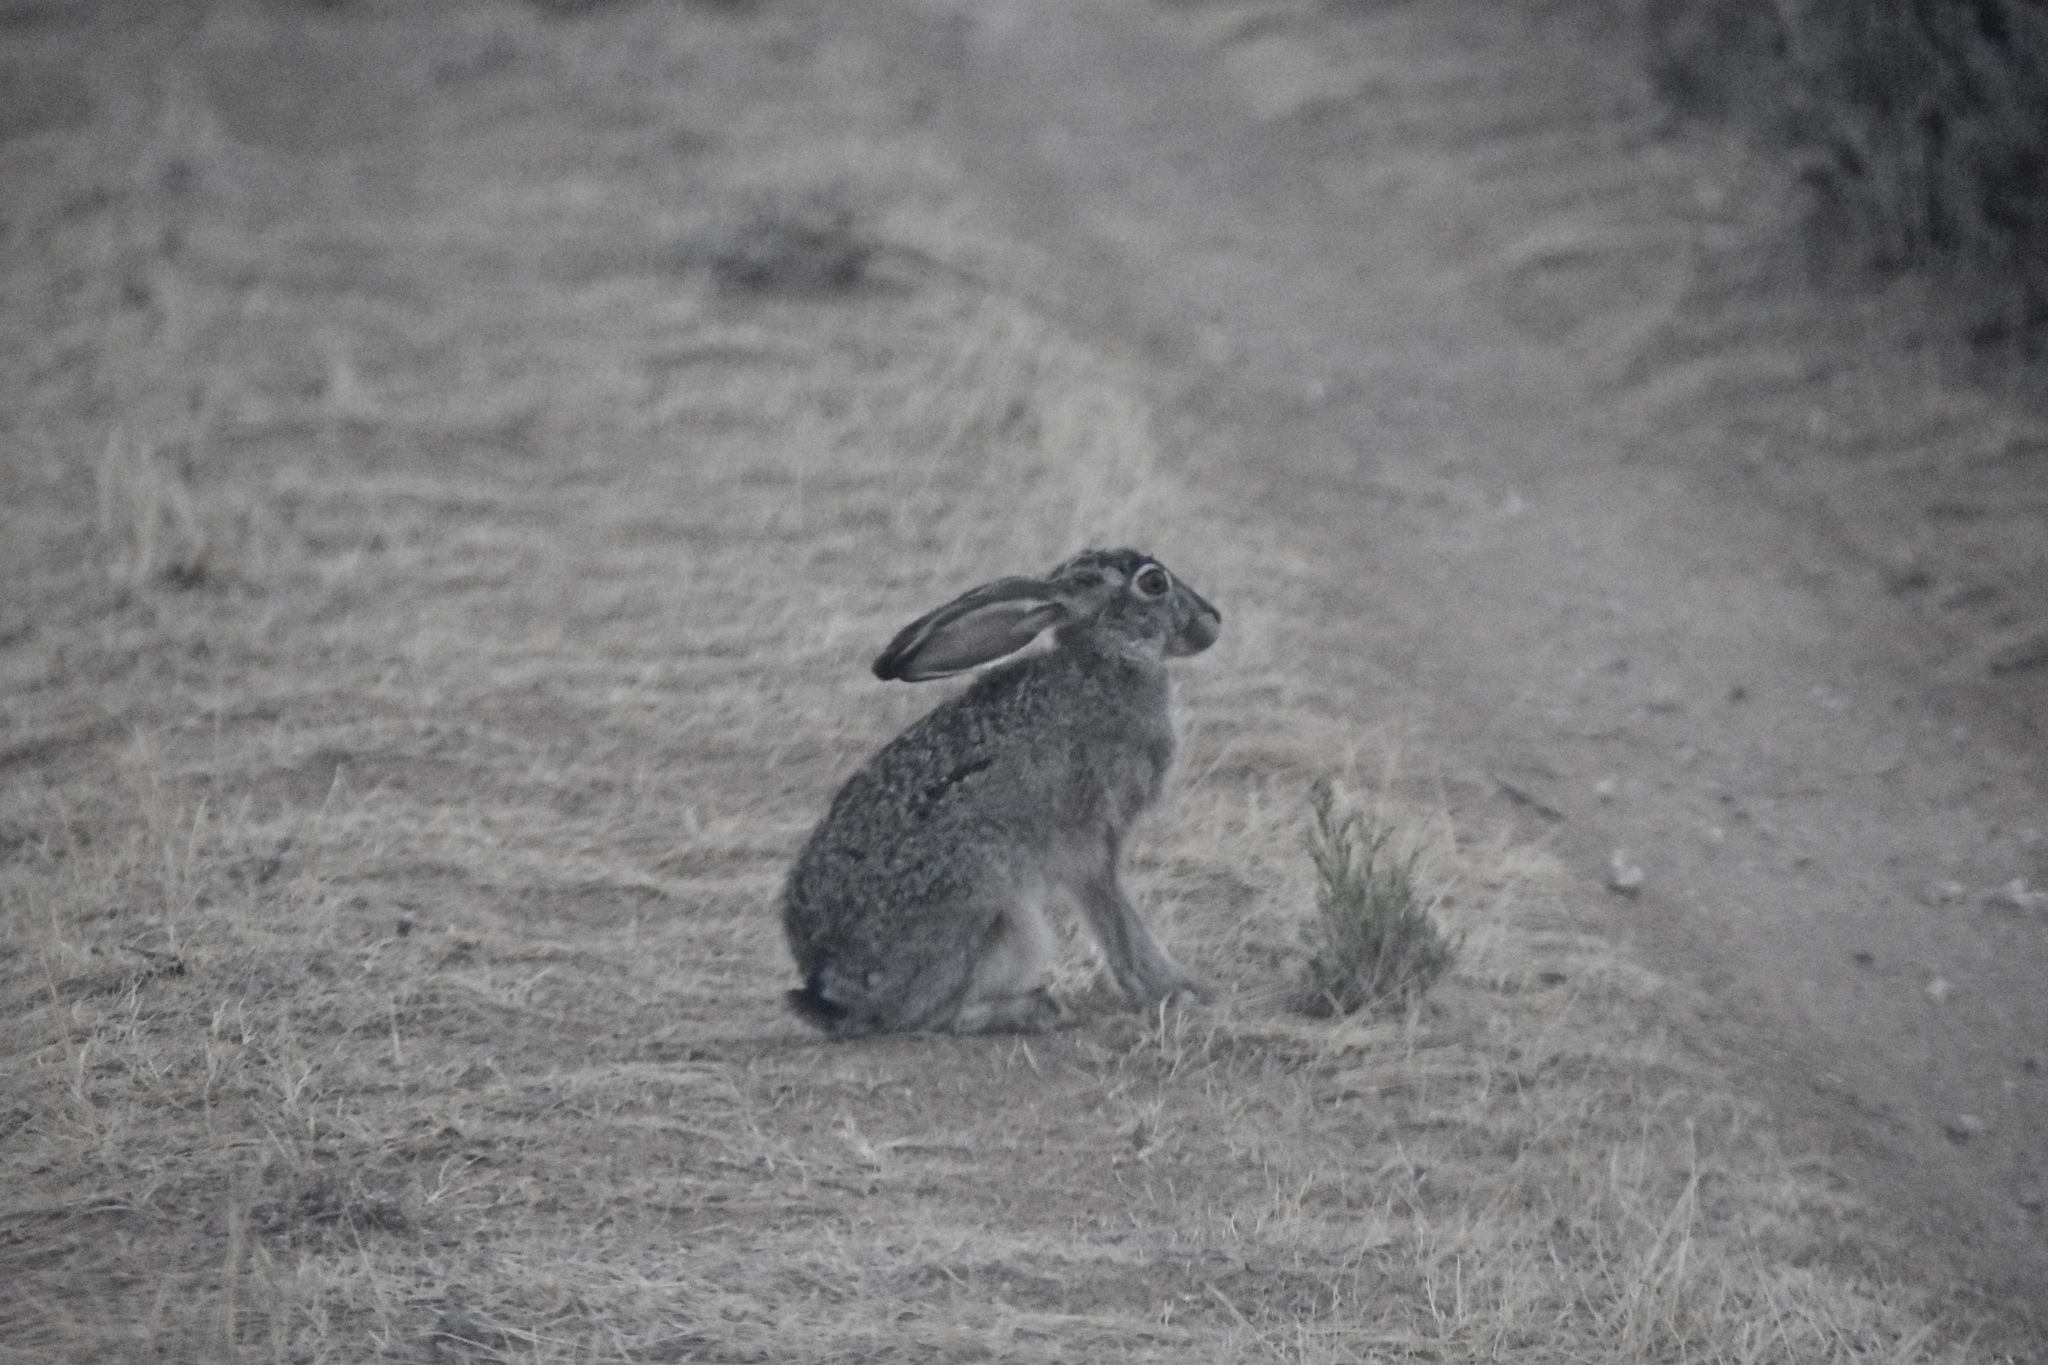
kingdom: Animalia
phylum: Chordata
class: Mammalia
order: Lagomorpha
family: Leporidae
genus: Lepus
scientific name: Lepus californicus
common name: Black-tailed jackrabbit
